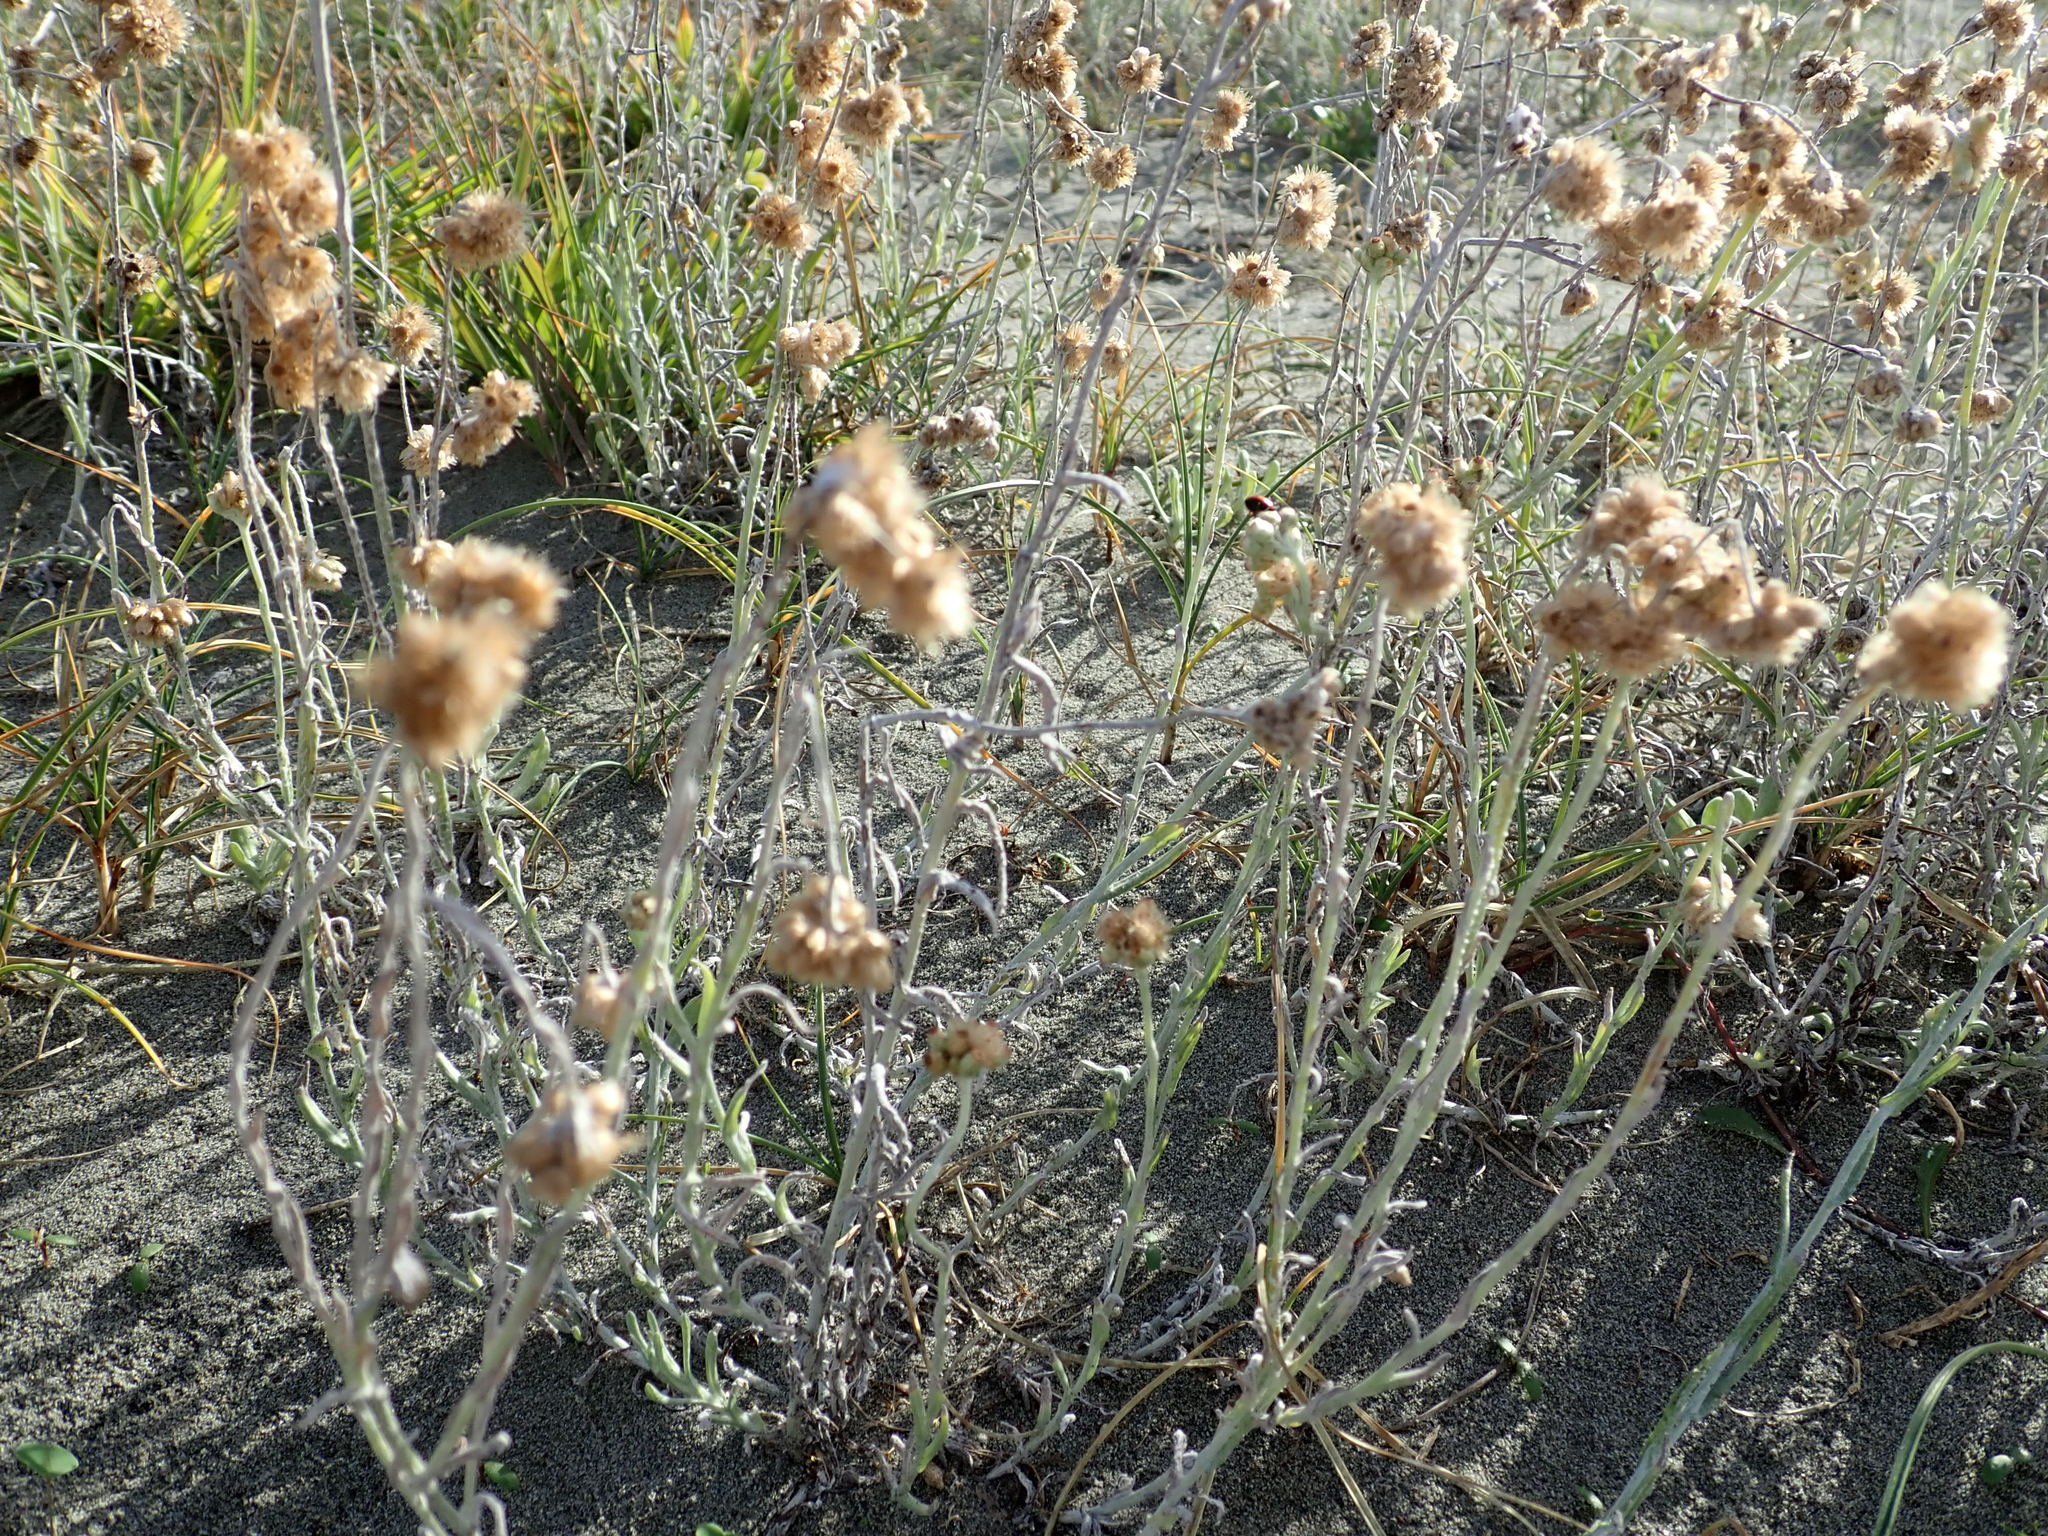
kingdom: Plantae
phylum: Tracheophyta
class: Magnoliopsida
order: Asterales
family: Asteraceae
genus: Helichrysum
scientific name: Helichrysum luteoalbum
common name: Daisy
